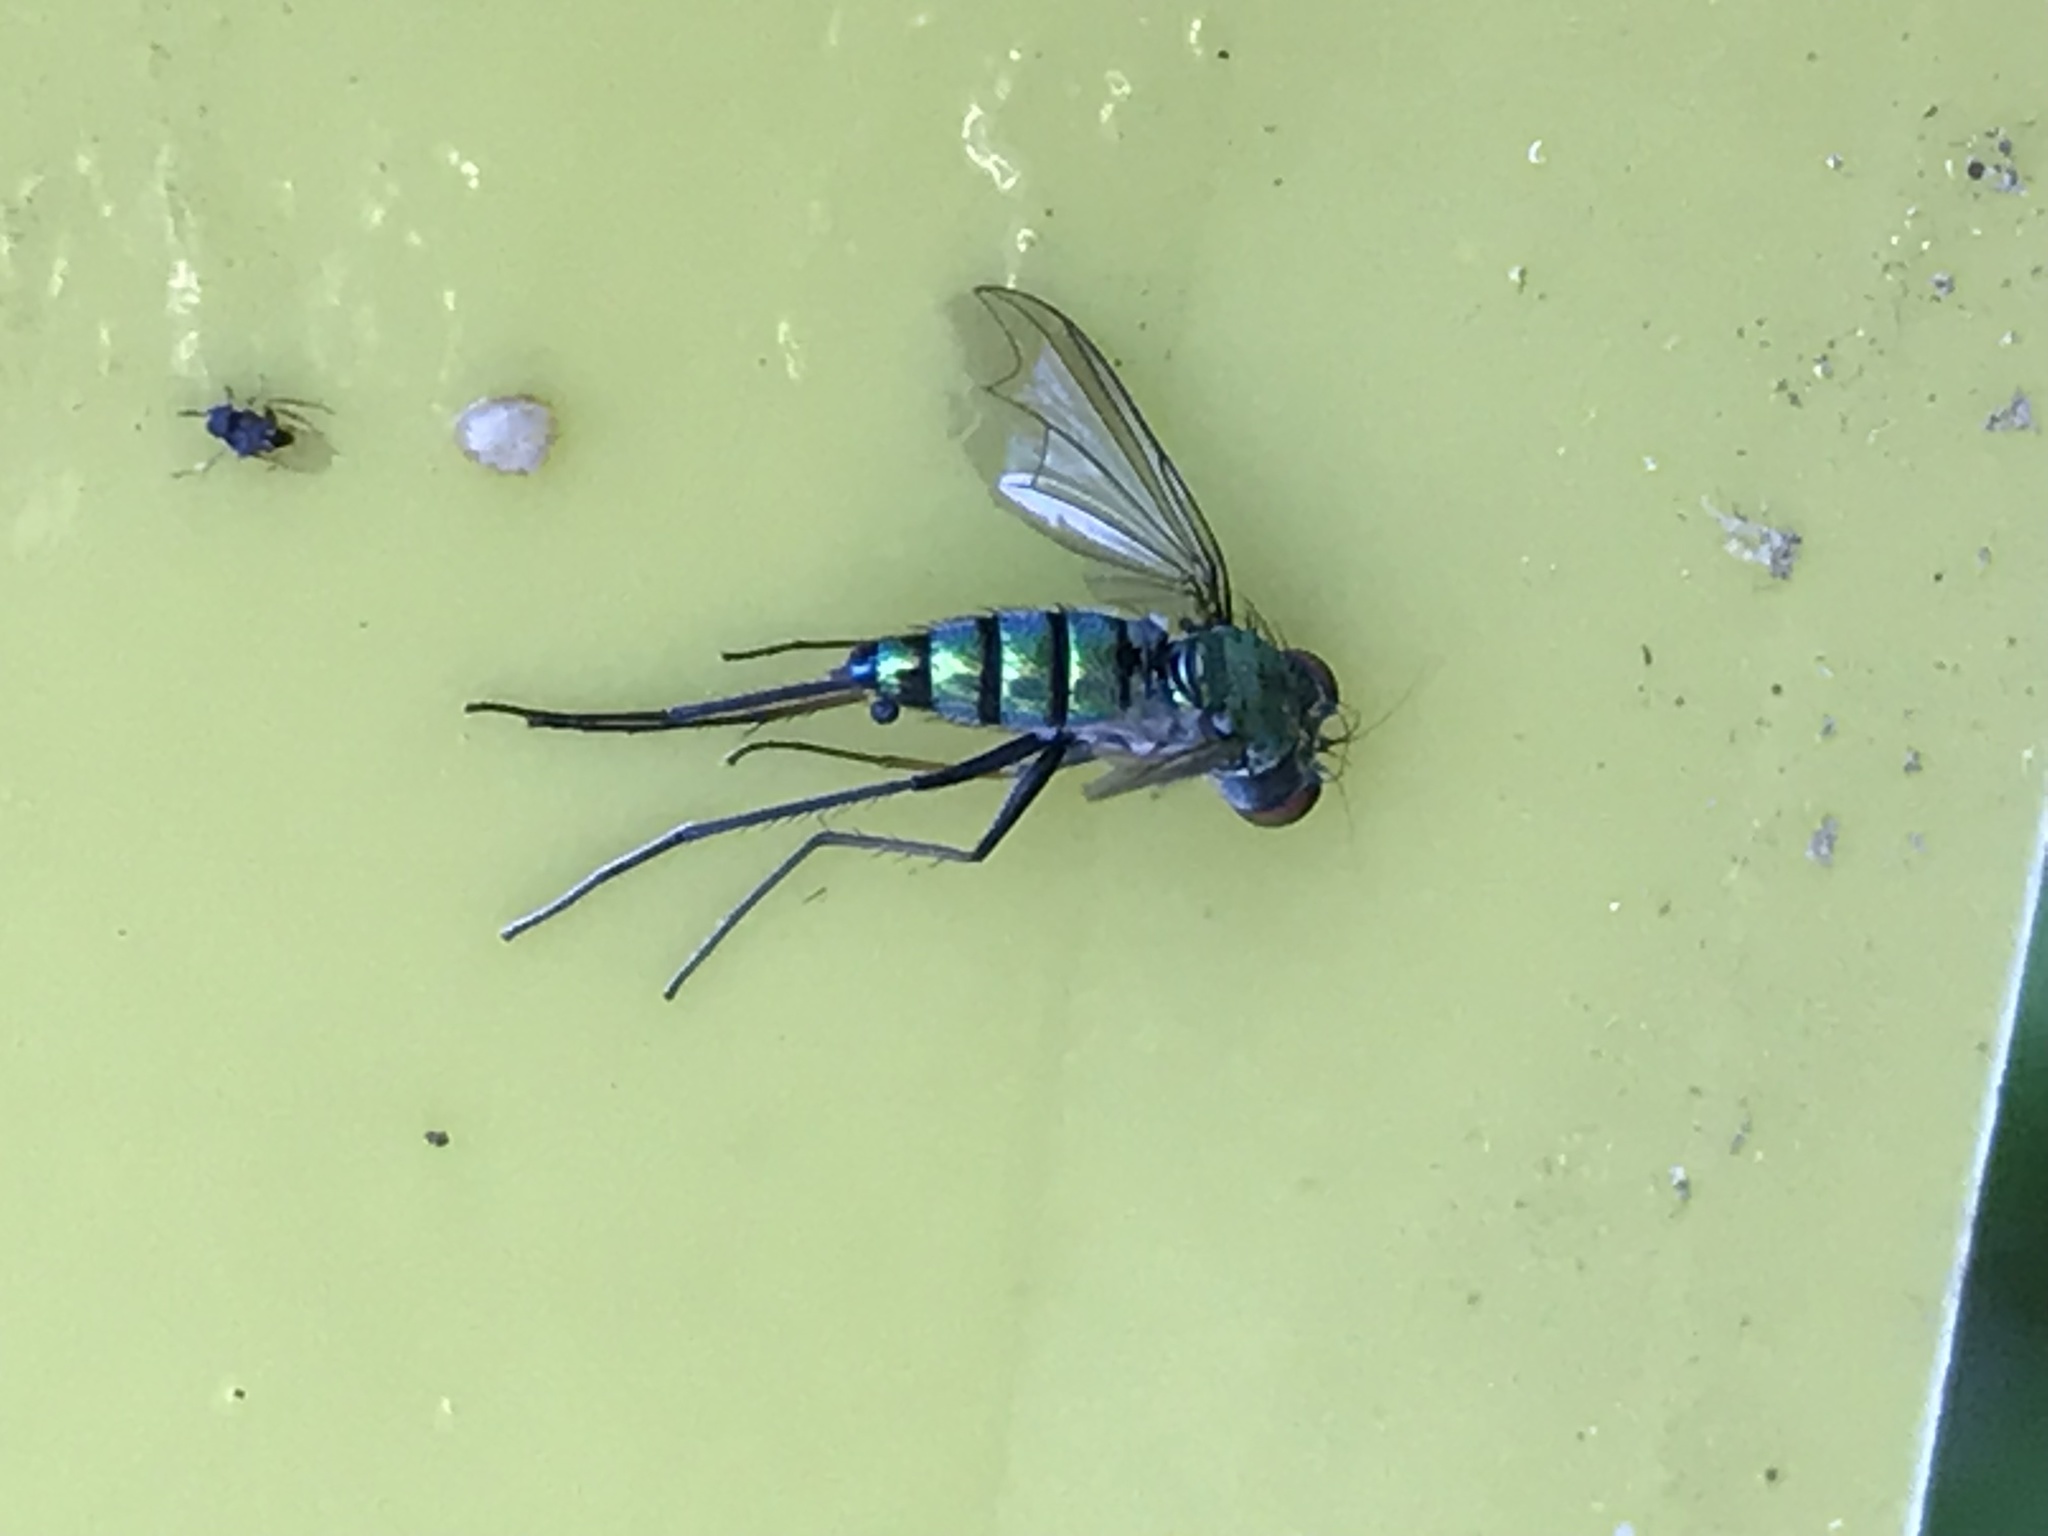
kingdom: Animalia
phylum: Arthropoda
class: Insecta
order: Diptera
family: Dolichopodidae
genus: Condylostylus
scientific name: Condylostylus longicornis
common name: Long-legged fly
